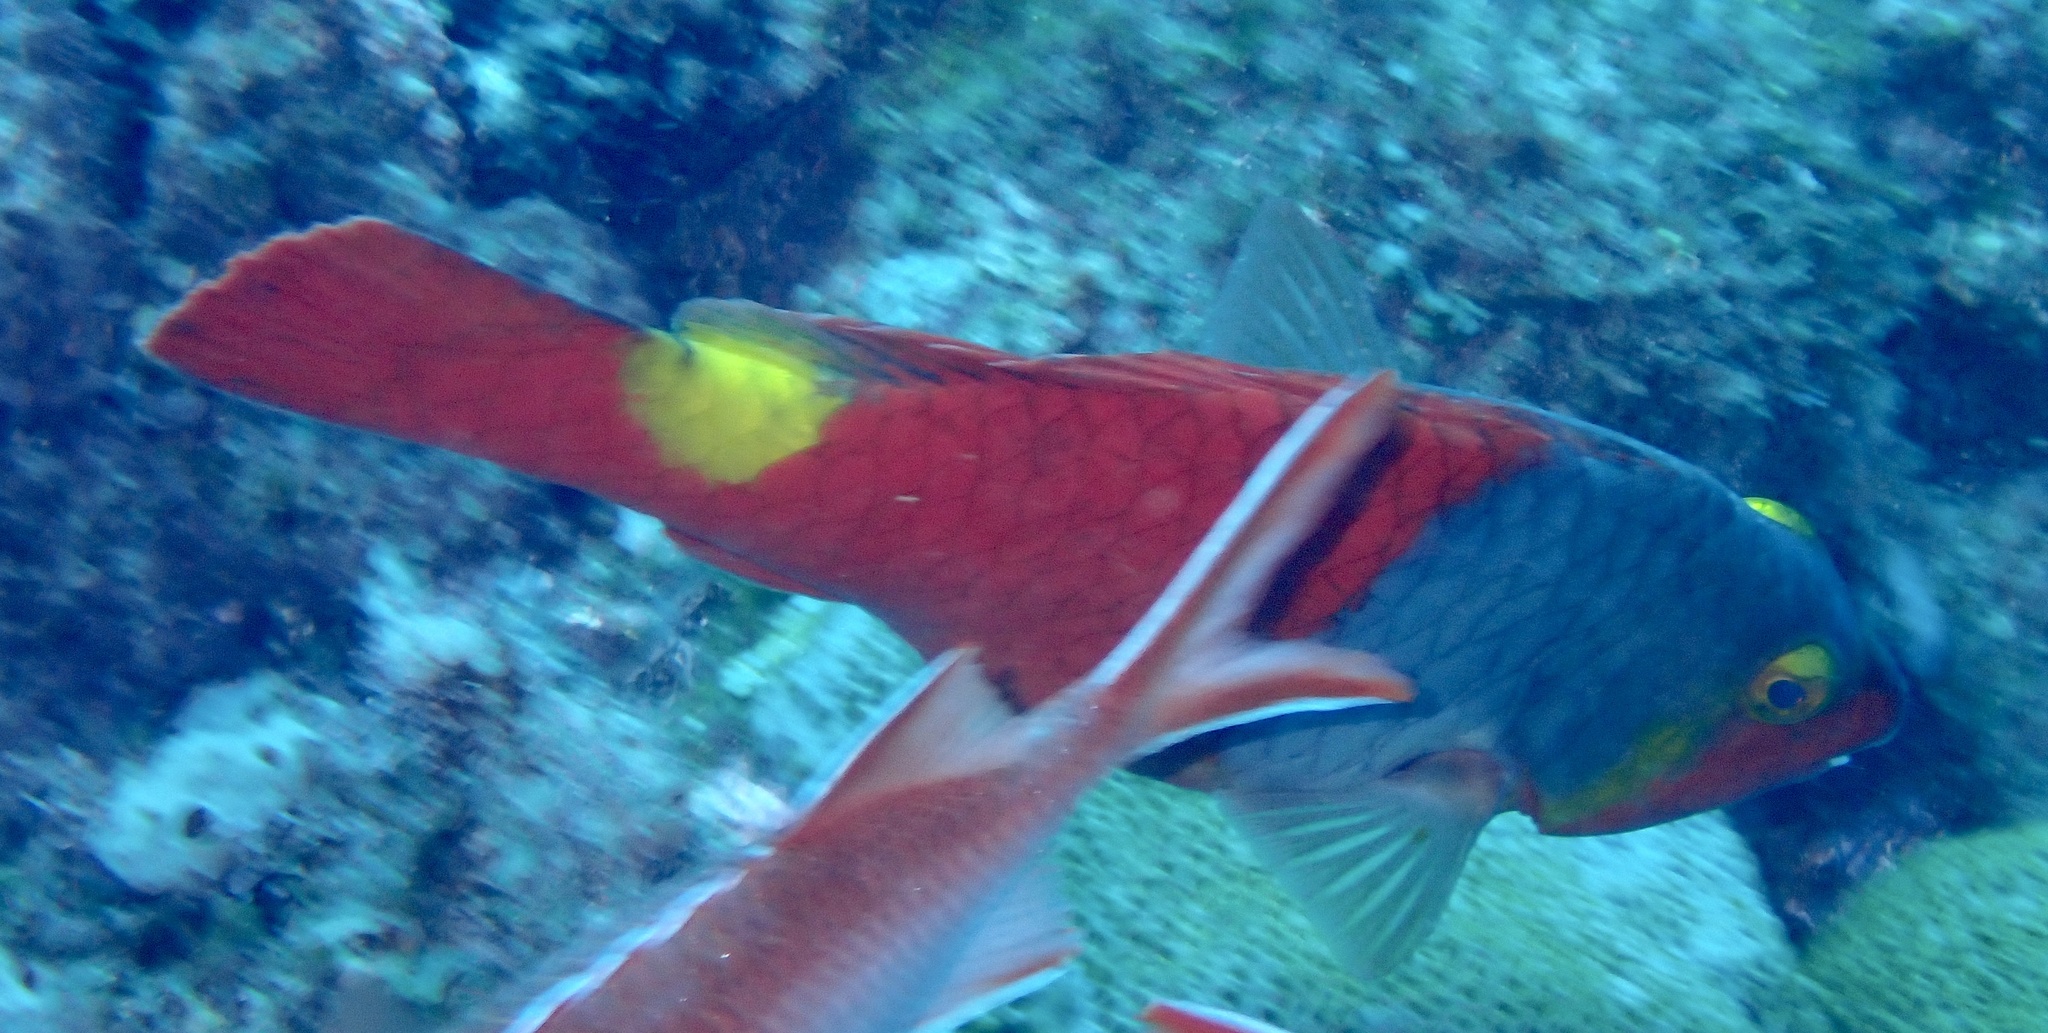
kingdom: Animalia
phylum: Chordata
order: Perciformes
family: Scaridae
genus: Sparisoma
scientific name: Sparisoma cretense
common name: Parrotfish
